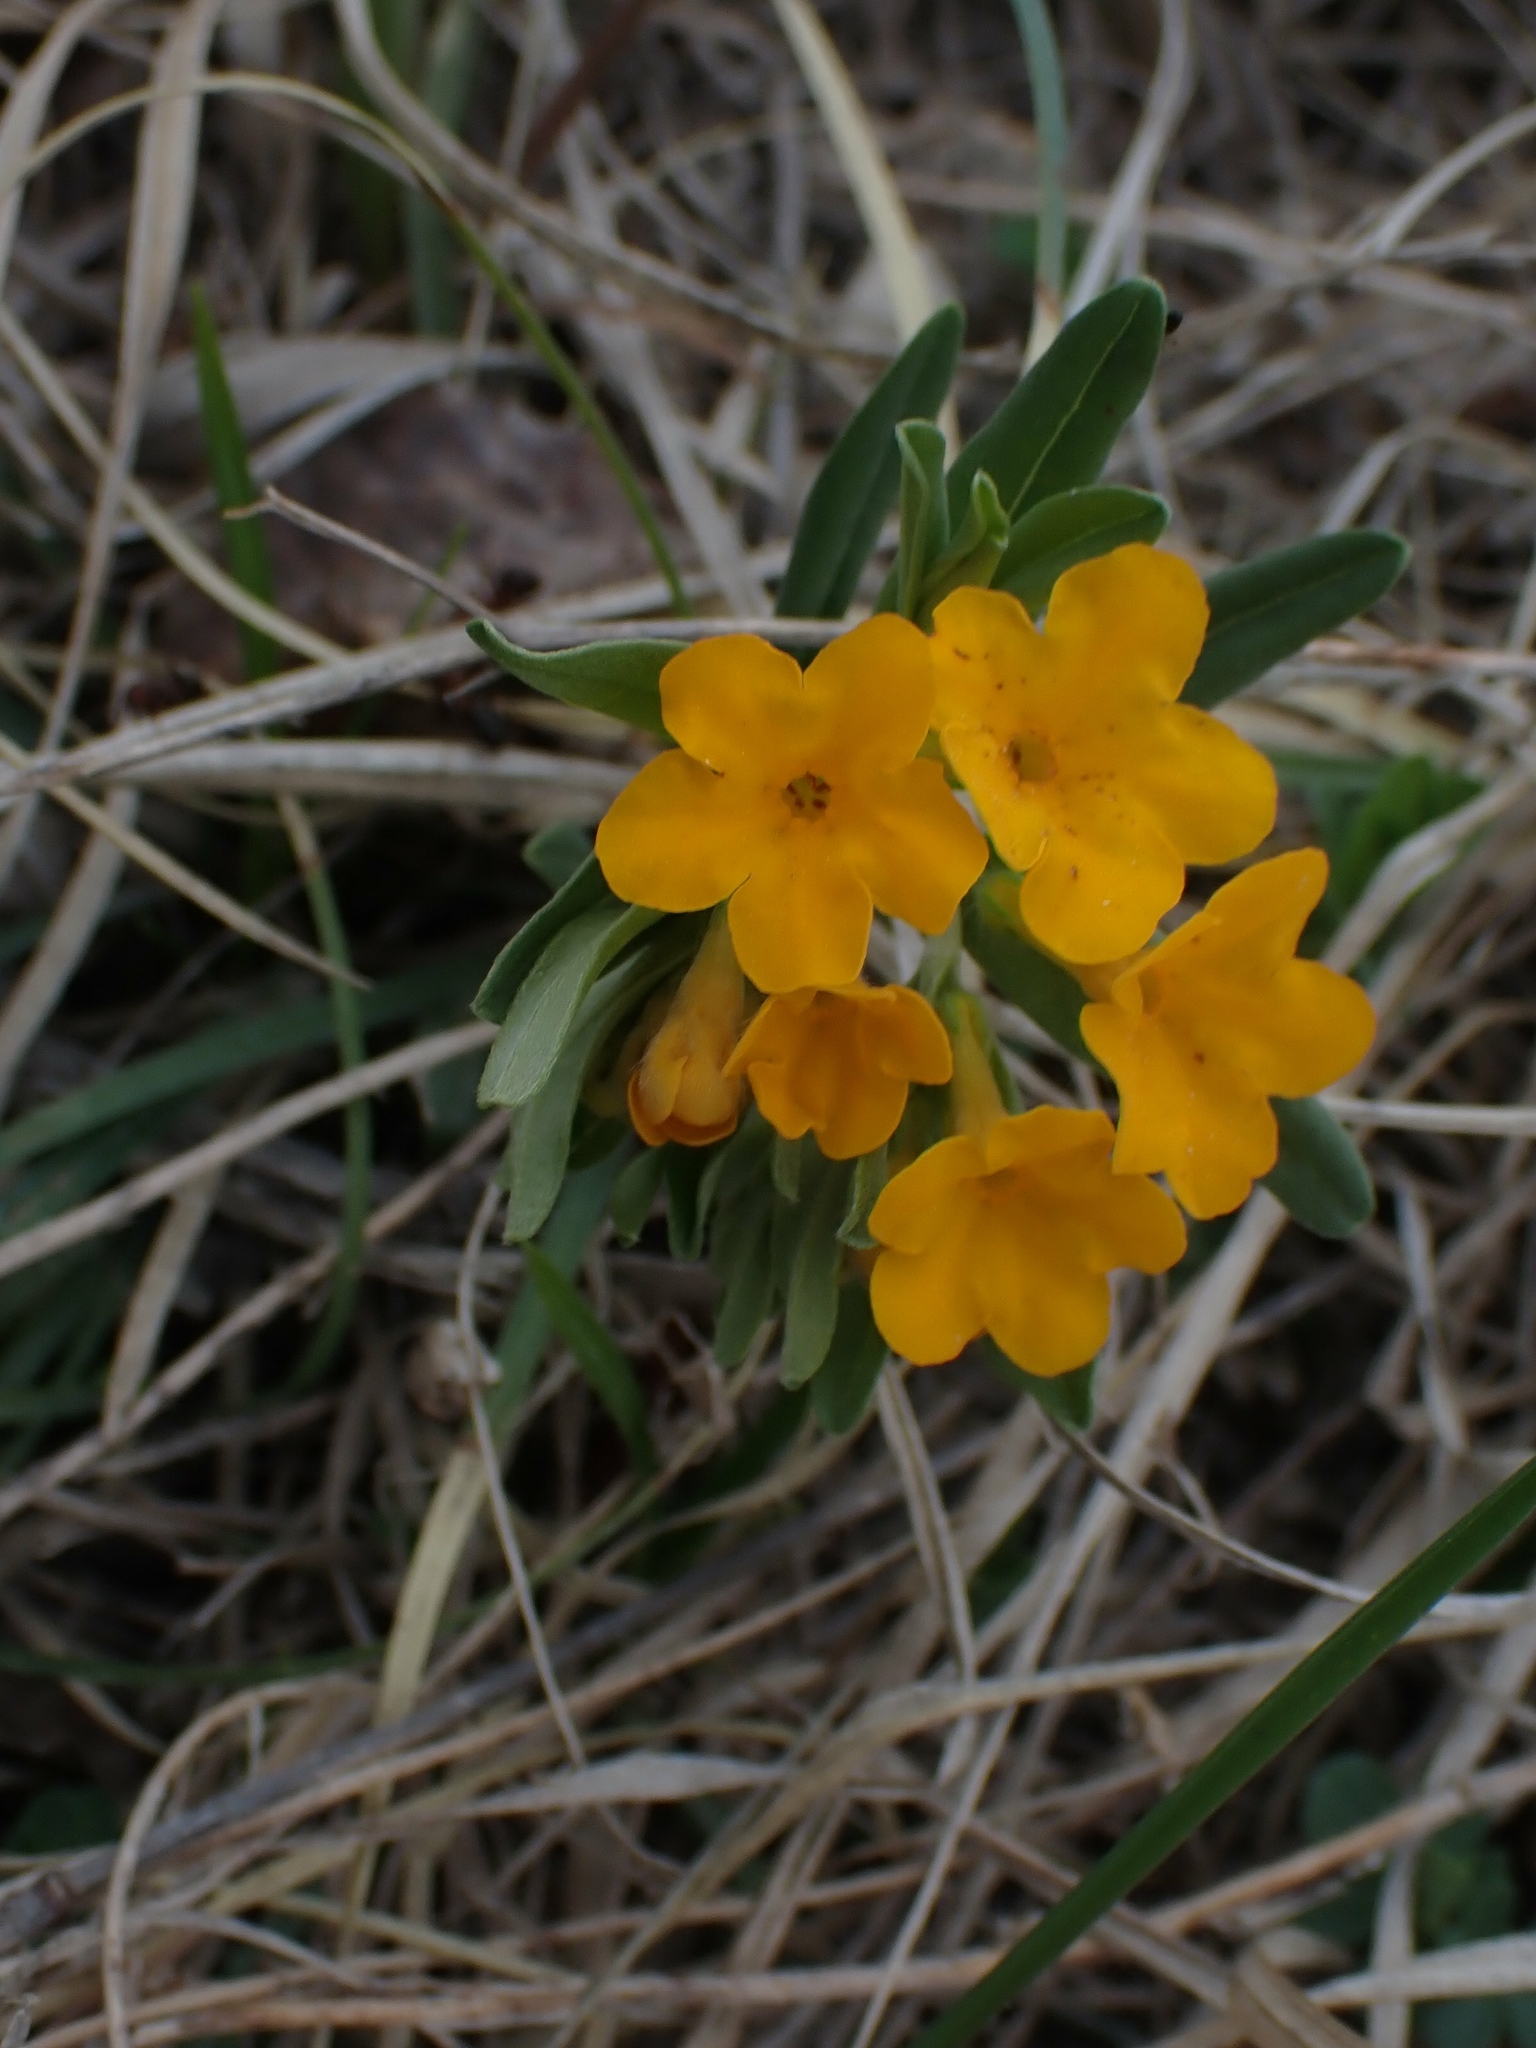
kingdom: Plantae
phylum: Tracheophyta
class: Magnoliopsida
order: Boraginales
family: Boraginaceae
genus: Lithospermum
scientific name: Lithospermum canescens
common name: Hoary puccoon
